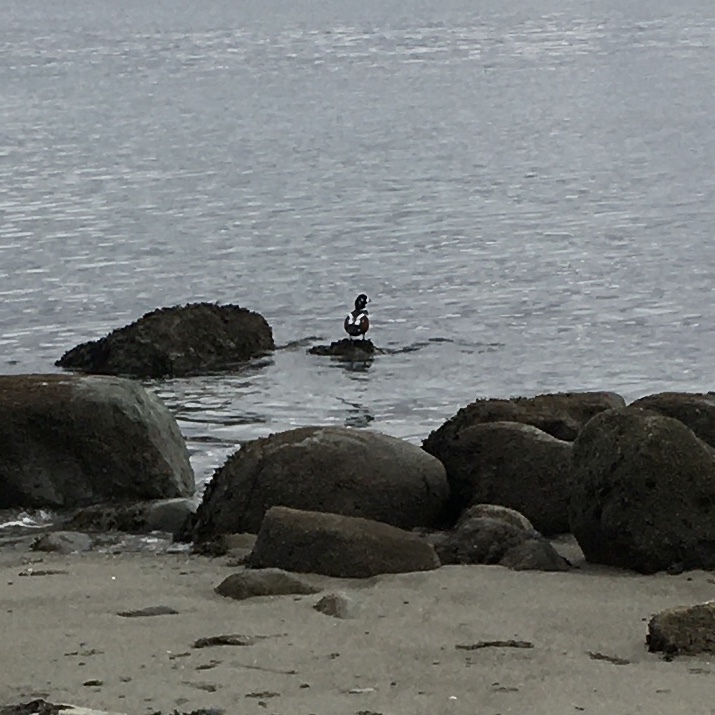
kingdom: Animalia
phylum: Chordata
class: Aves
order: Anseriformes
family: Anatidae
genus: Histrionicus
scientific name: Histrionicus histrionicus
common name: Harlequin duck
